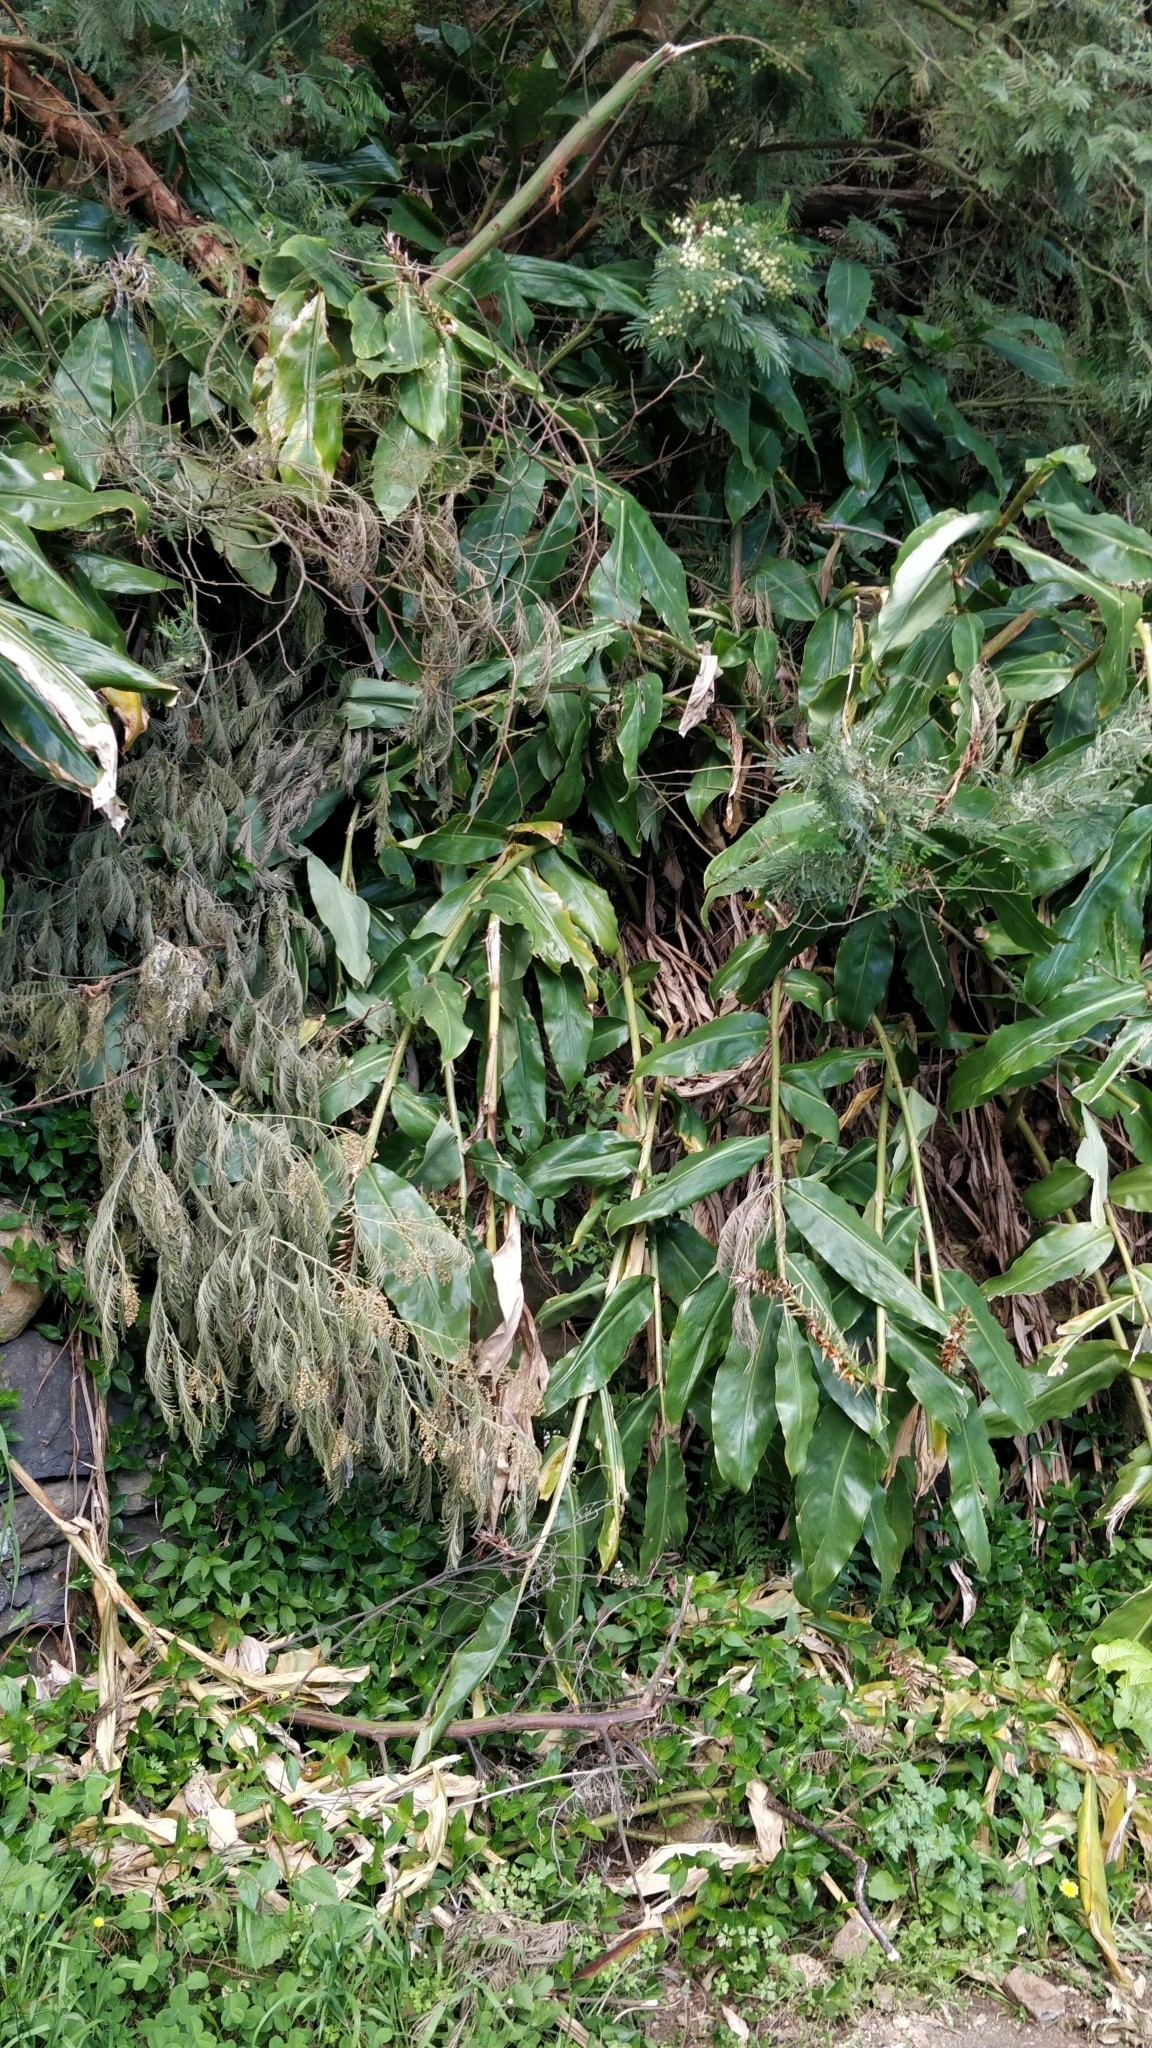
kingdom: Plantae
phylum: Tracheophyta
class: Liliopsida
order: Zingiberales
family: Zingiberaceae
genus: Hedychium
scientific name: Hedychium gardnerianum
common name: Himalayan ginger
